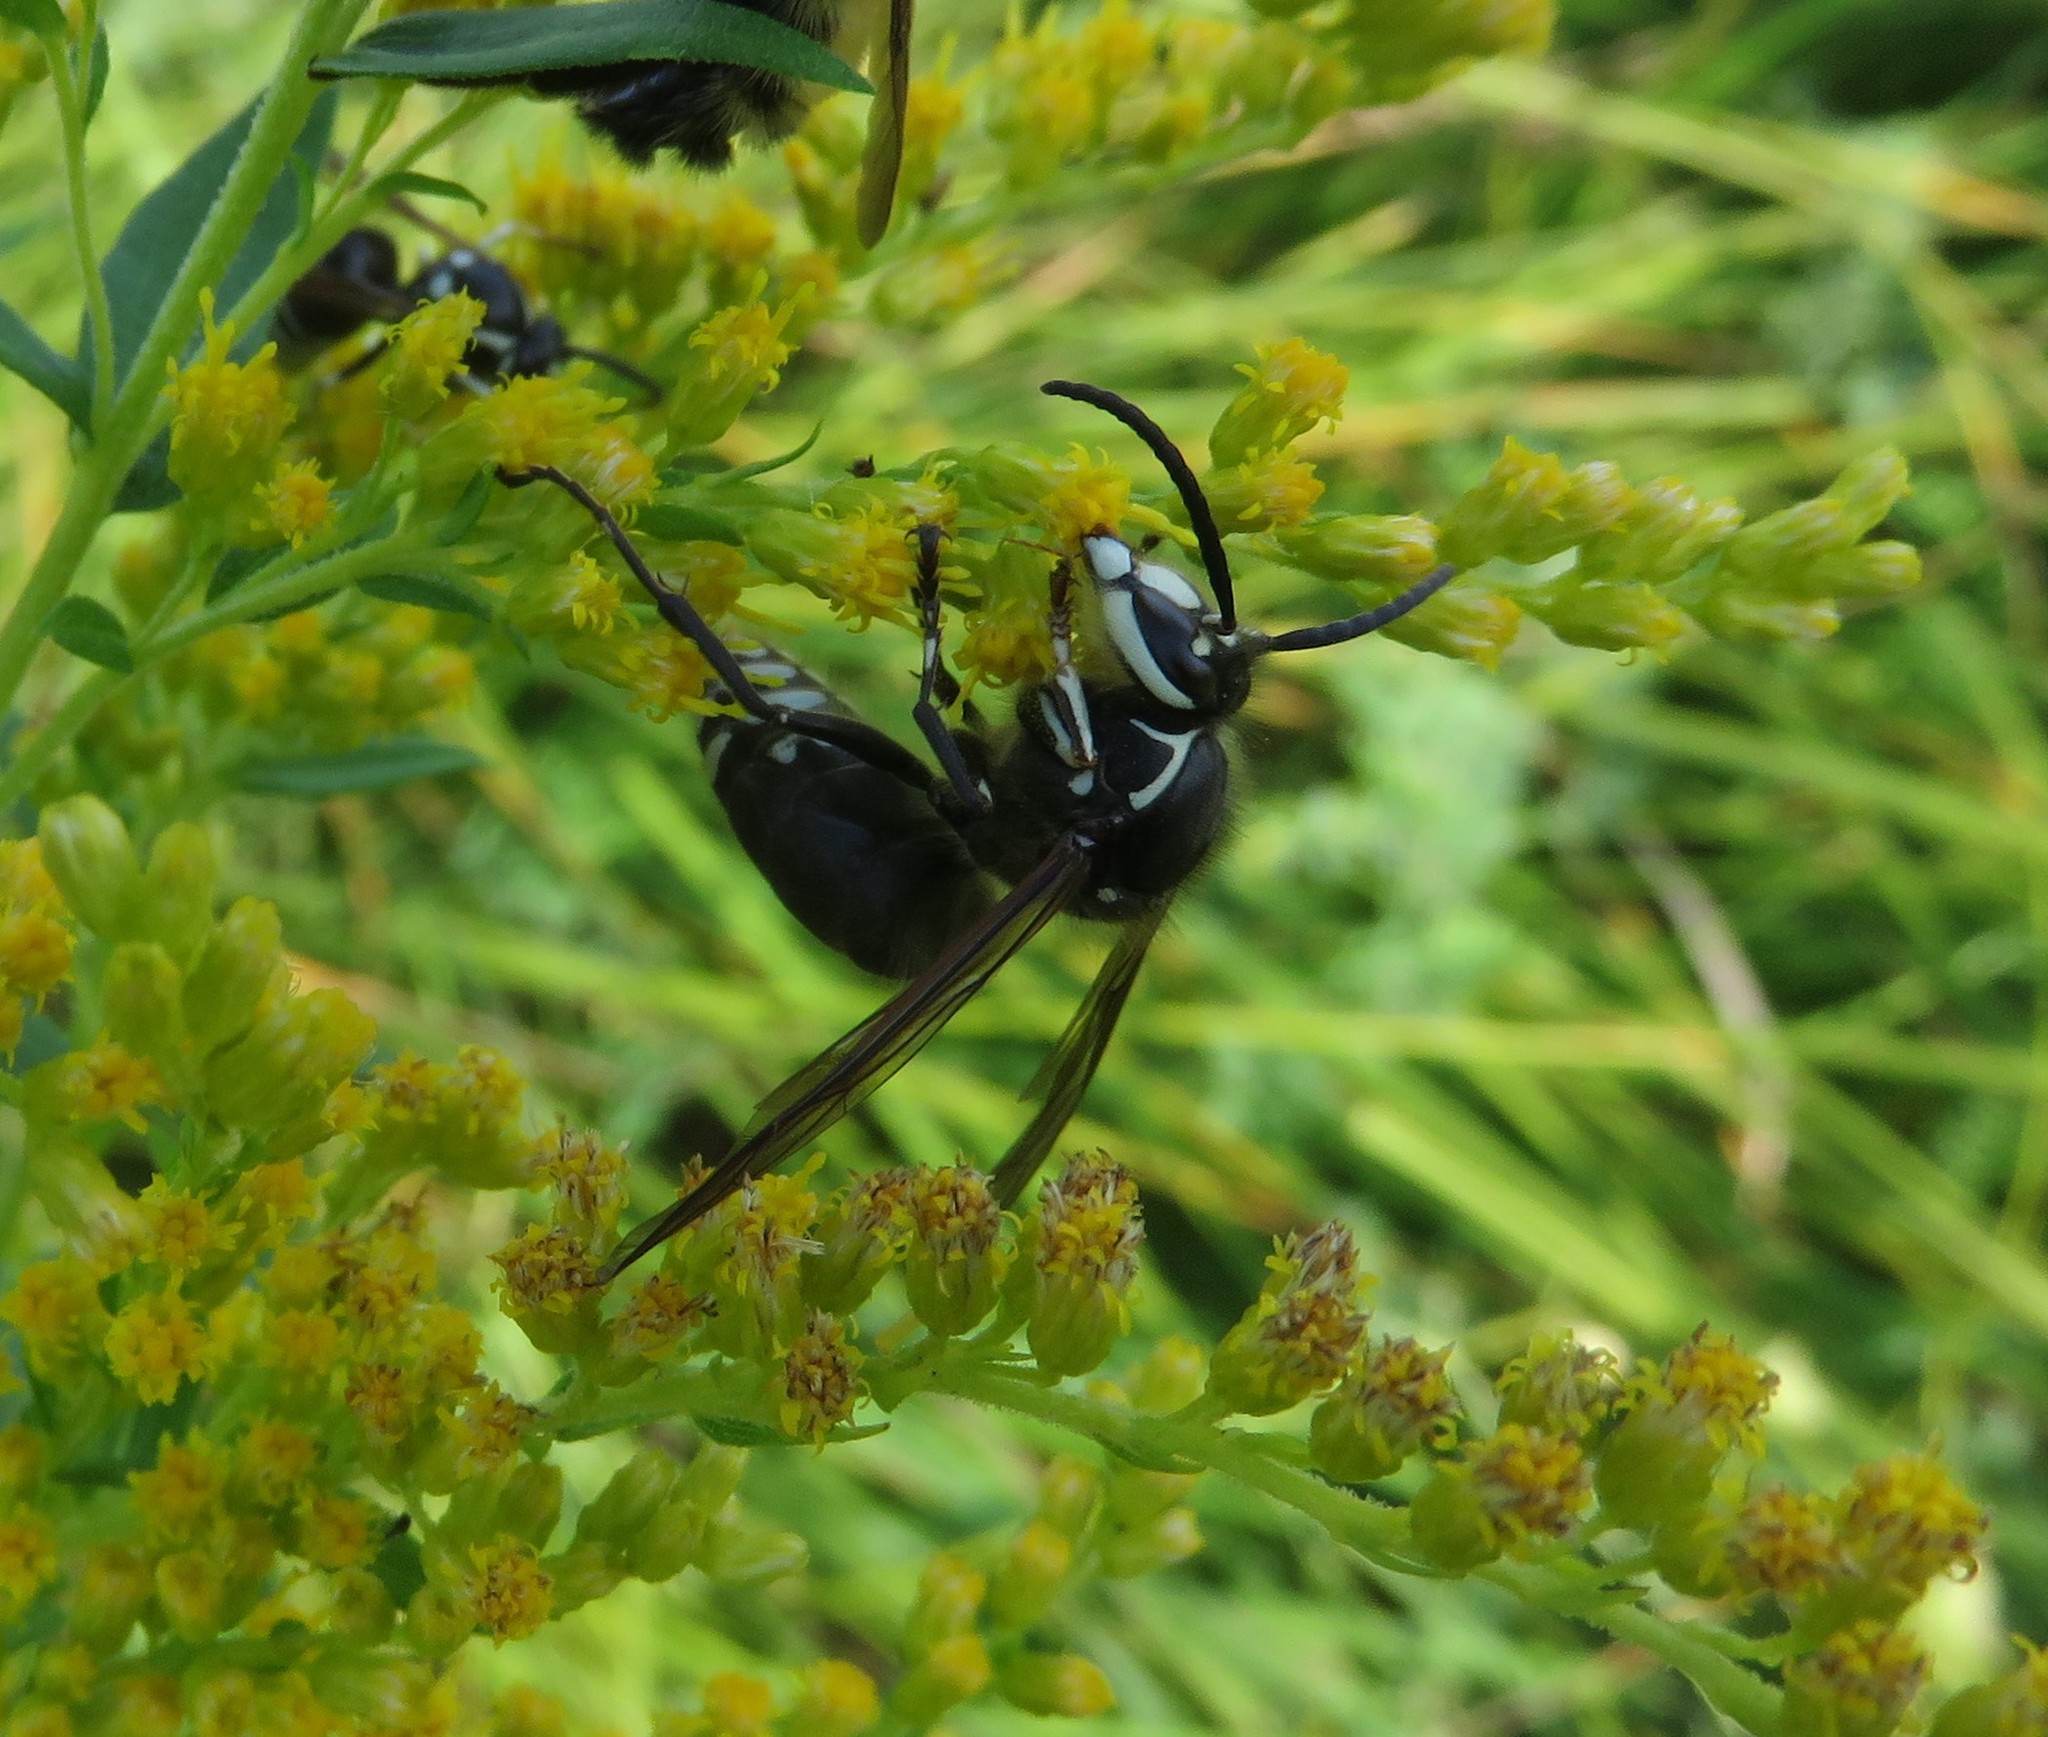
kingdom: Animalia
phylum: Arthropoda
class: Insecta
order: Hymenoptera
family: Vespidae
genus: Dolichovespula
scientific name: Dolichovespula maculata
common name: Bald-faced hornet
